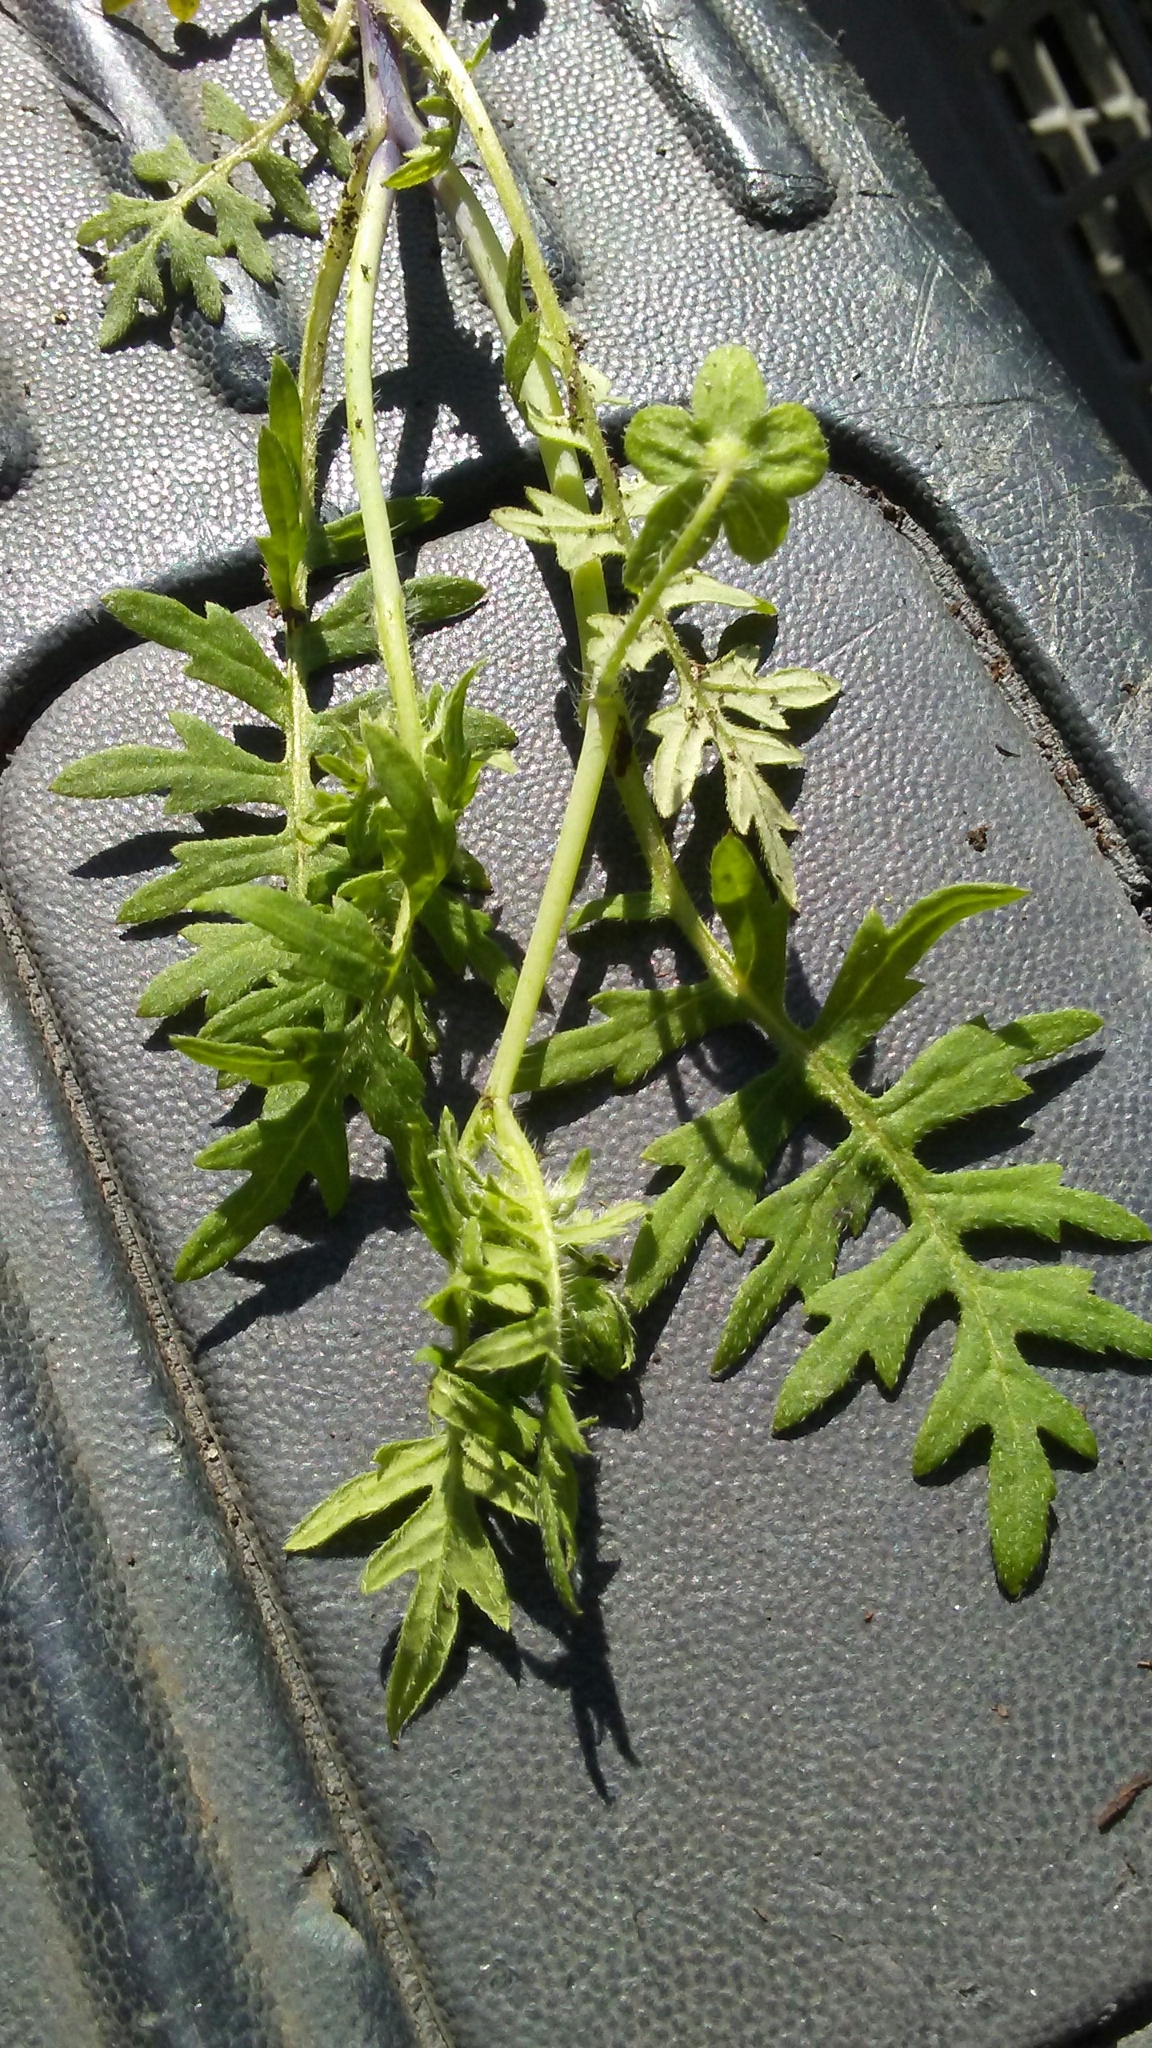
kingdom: Plantae
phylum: Tracheophyta
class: Magnoliopsida
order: Boraginales
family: Hydrophyllaceae
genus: Ellisia
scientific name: Ellisia nyctelea
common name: Aunt lucy
